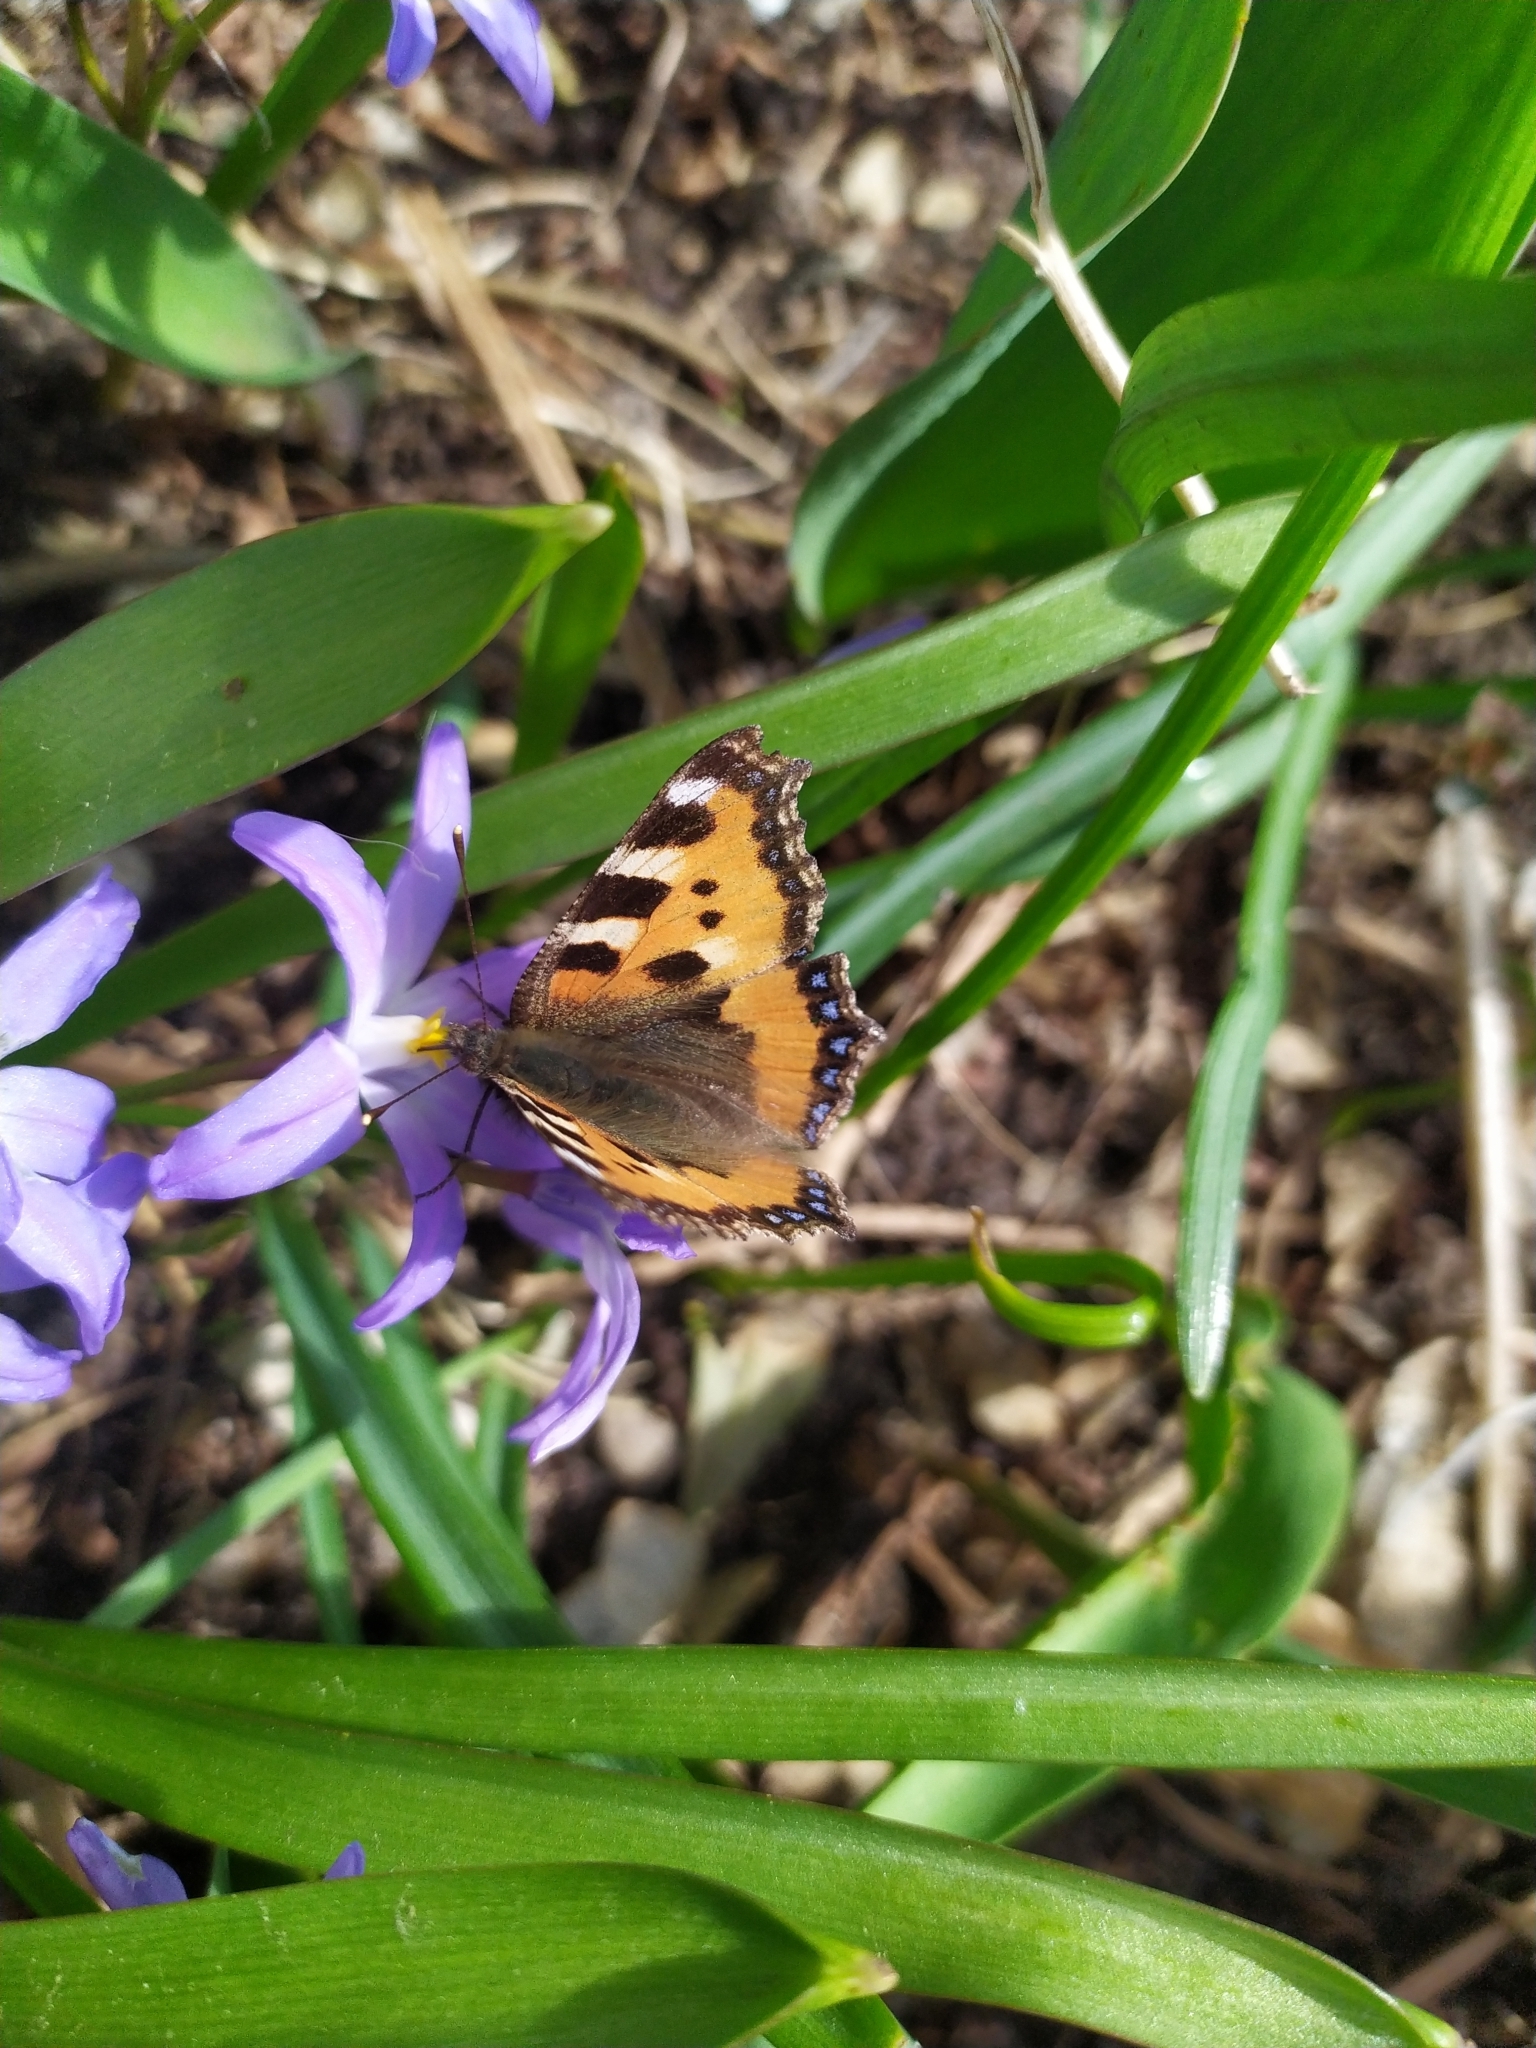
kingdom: Animalia
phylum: Arthropoda
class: Insecta
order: Lepidoptera
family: Nymphalidae
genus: Aglais
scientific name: Aglais urticae
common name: Small tortoiseshell
